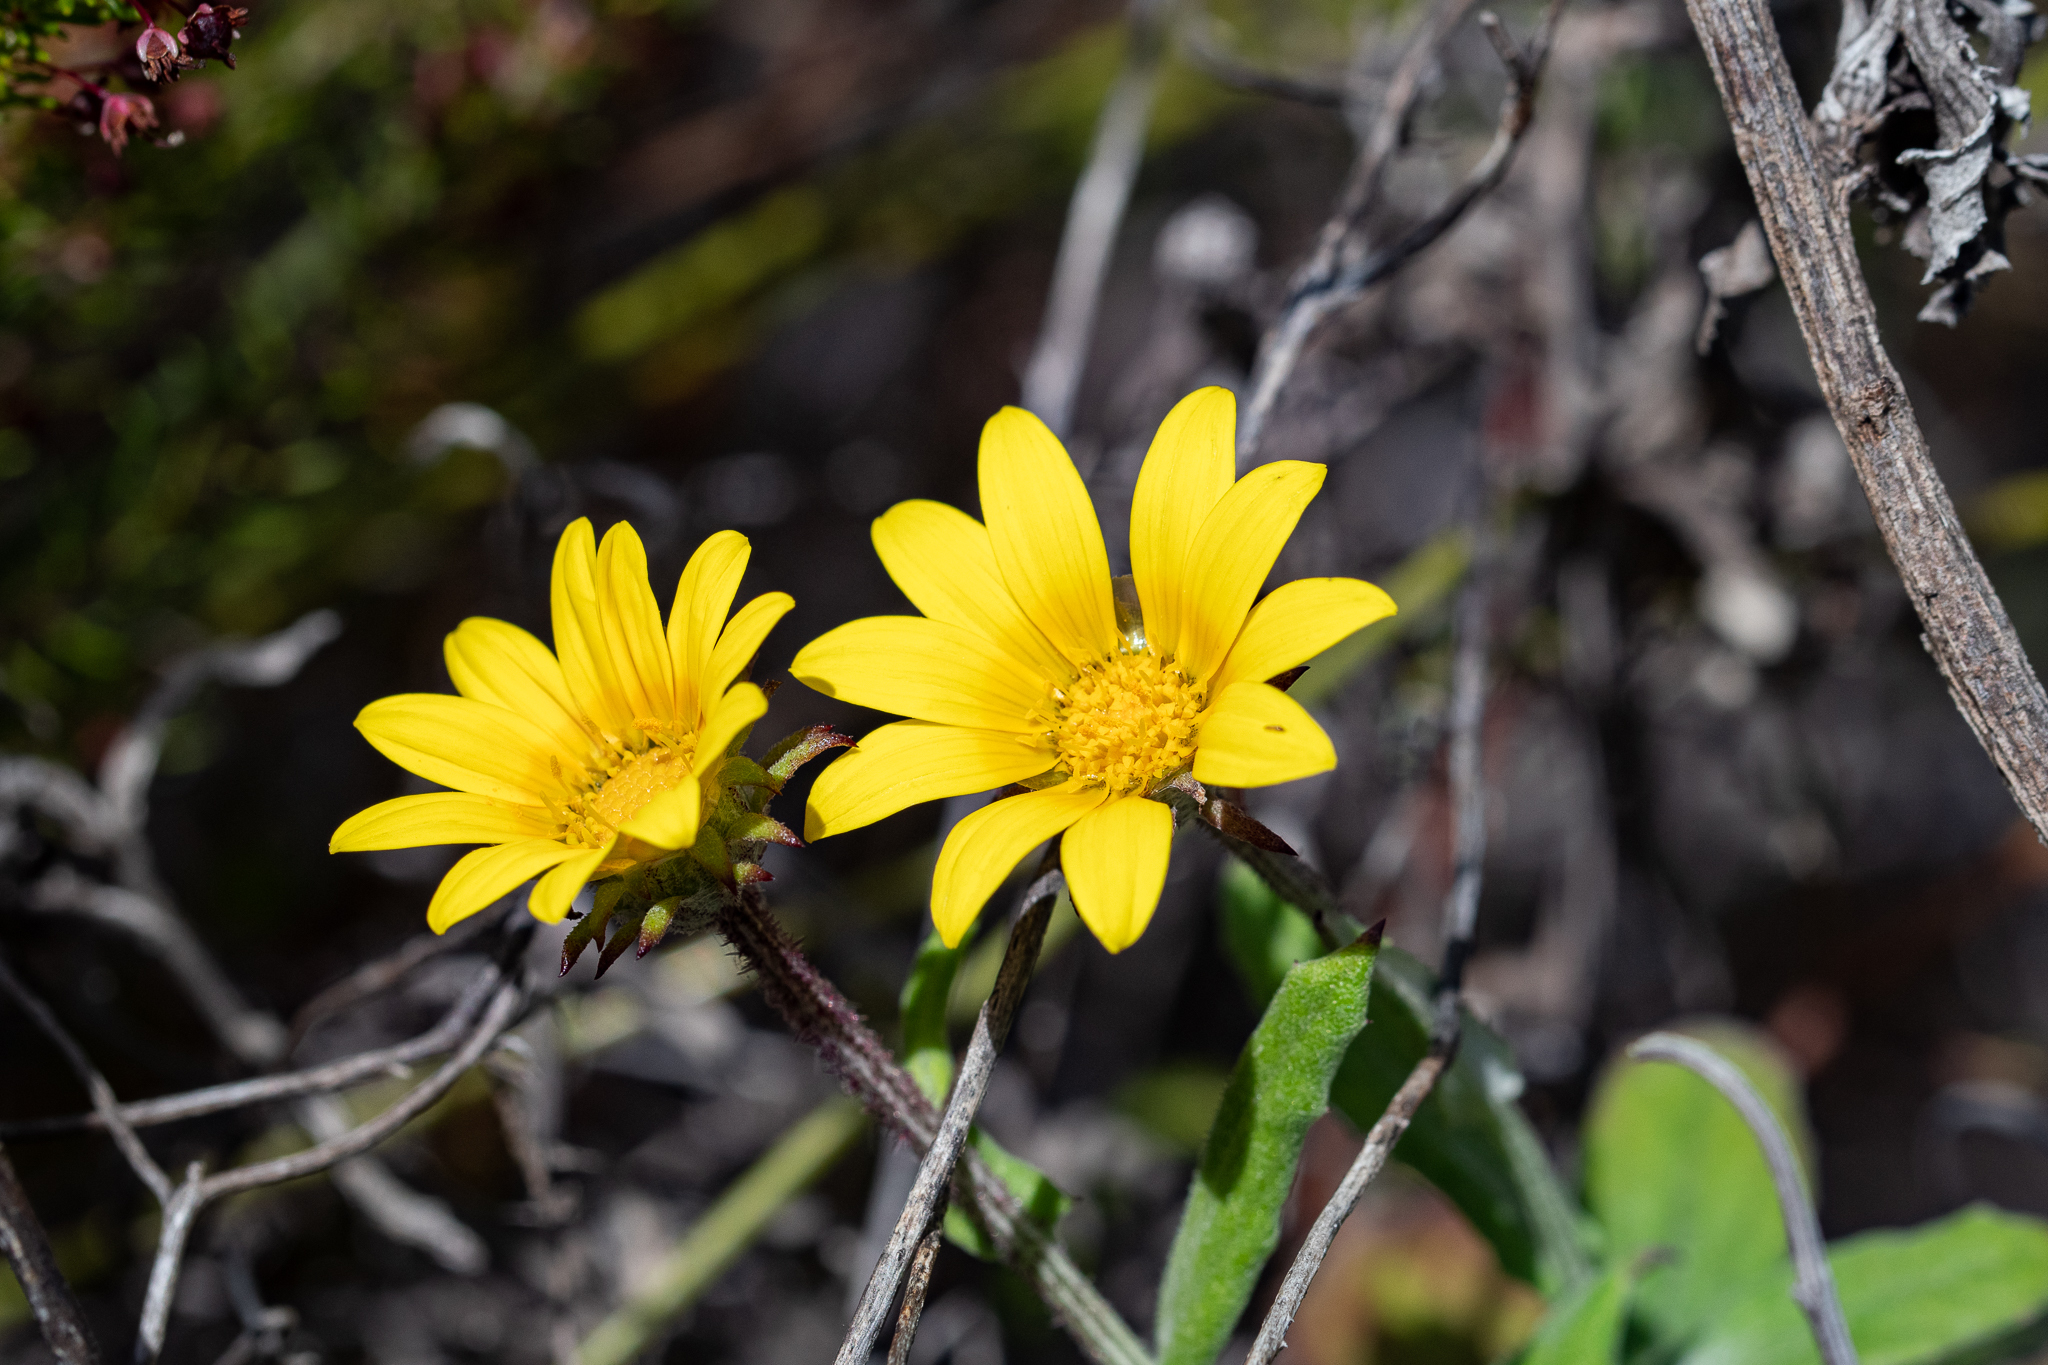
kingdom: Plantae
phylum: Tracheophyta
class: Magnoliopsida
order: Asterales
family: Asteraceae
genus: Arctotis
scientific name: Arctotis scabra
